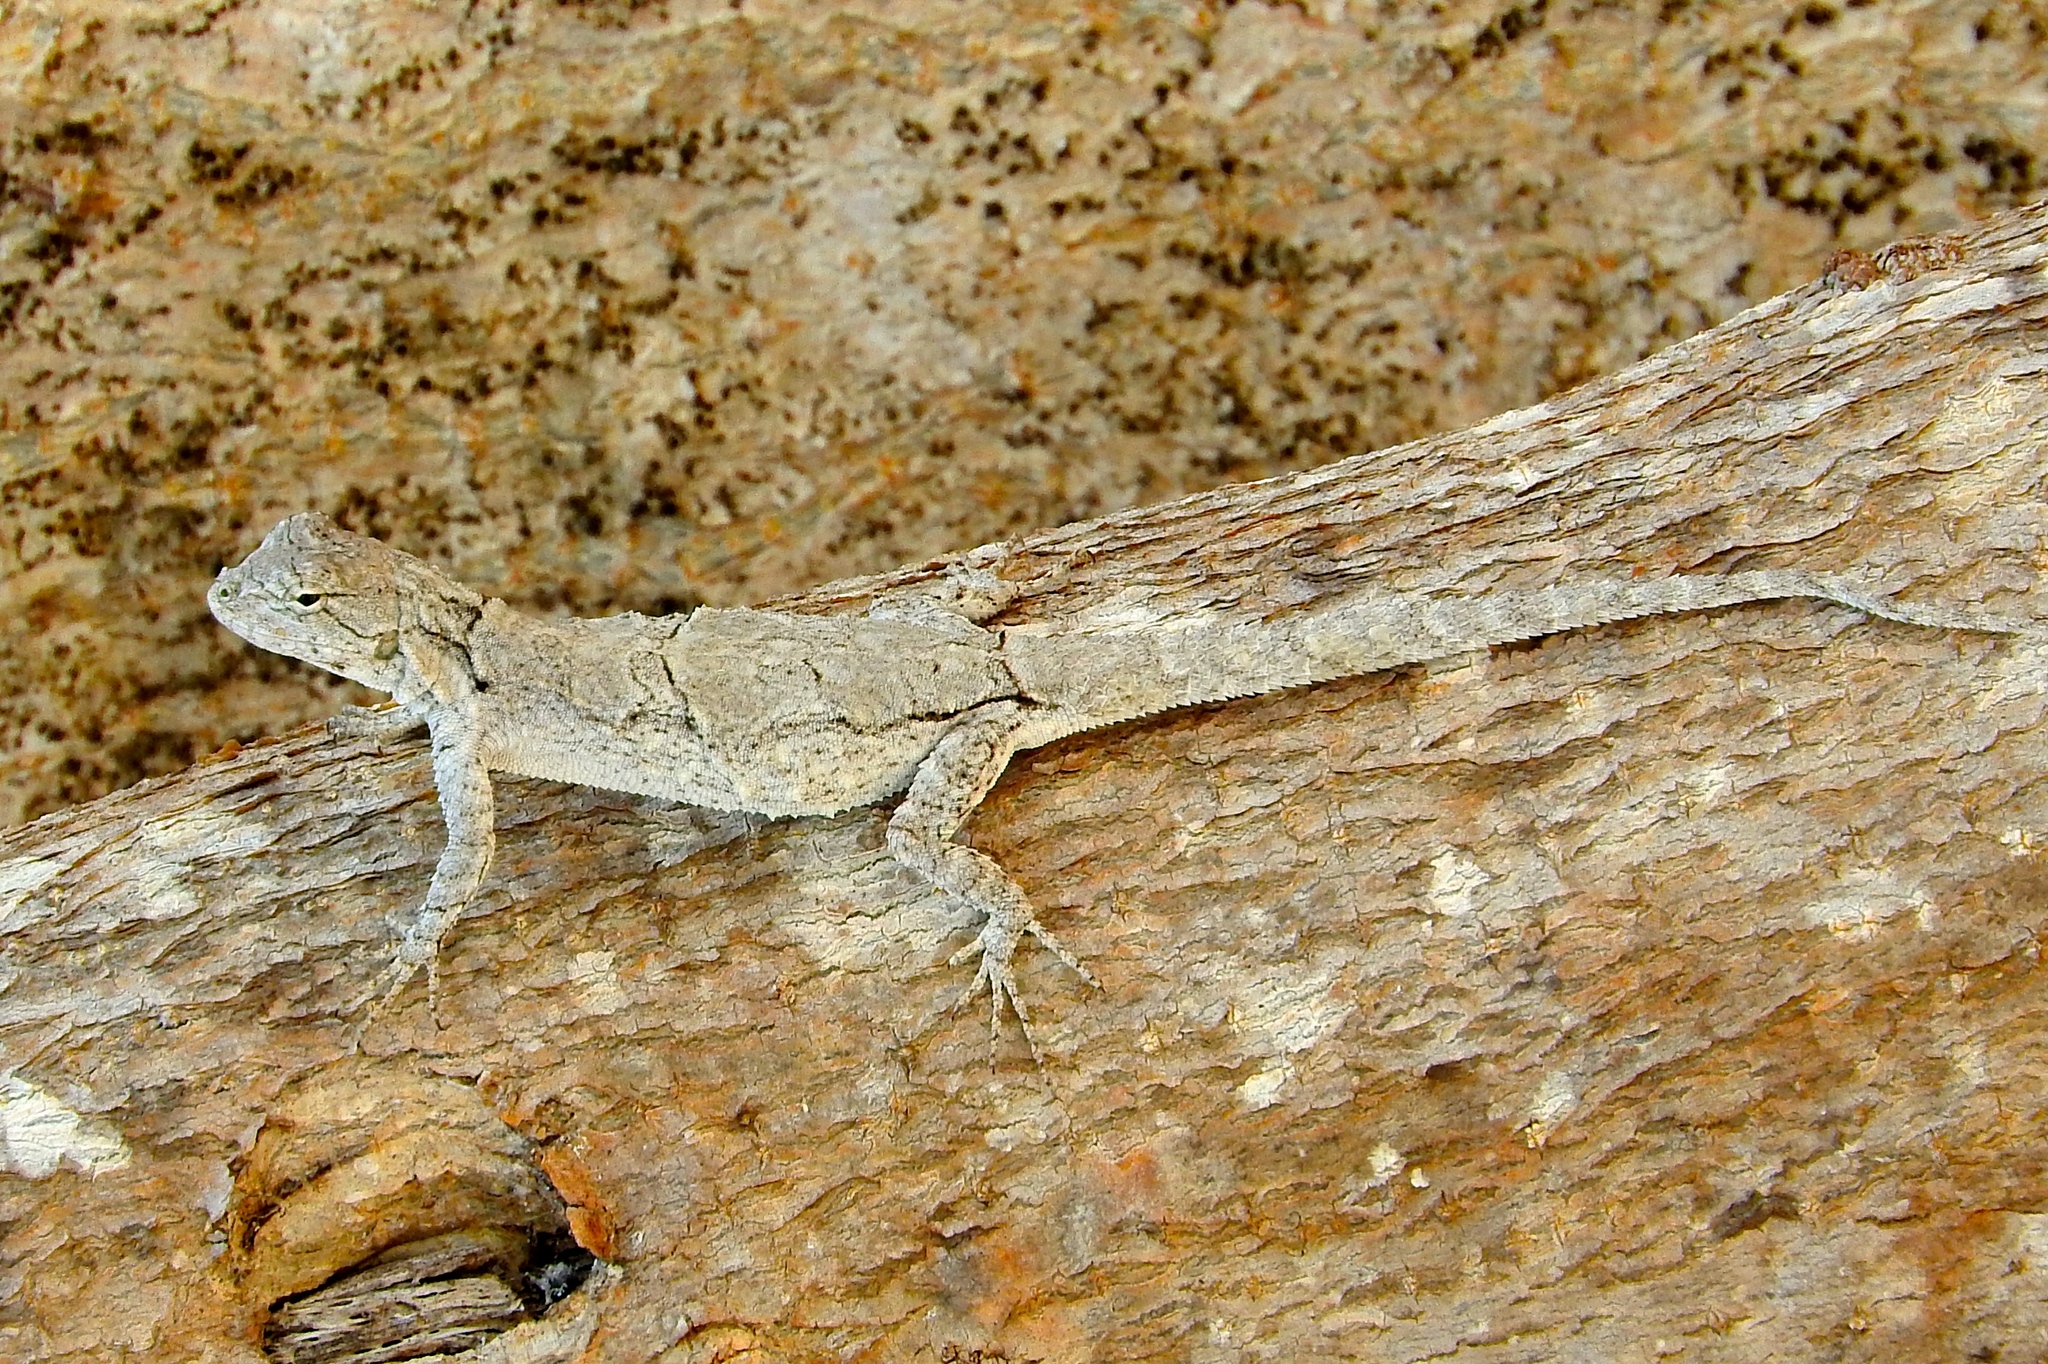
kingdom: Animalia
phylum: Chordata
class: Squamata
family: Phrynosomatidae
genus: Urosaurus
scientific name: Urosaurus bicarinatus
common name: Tropical tree lizard
